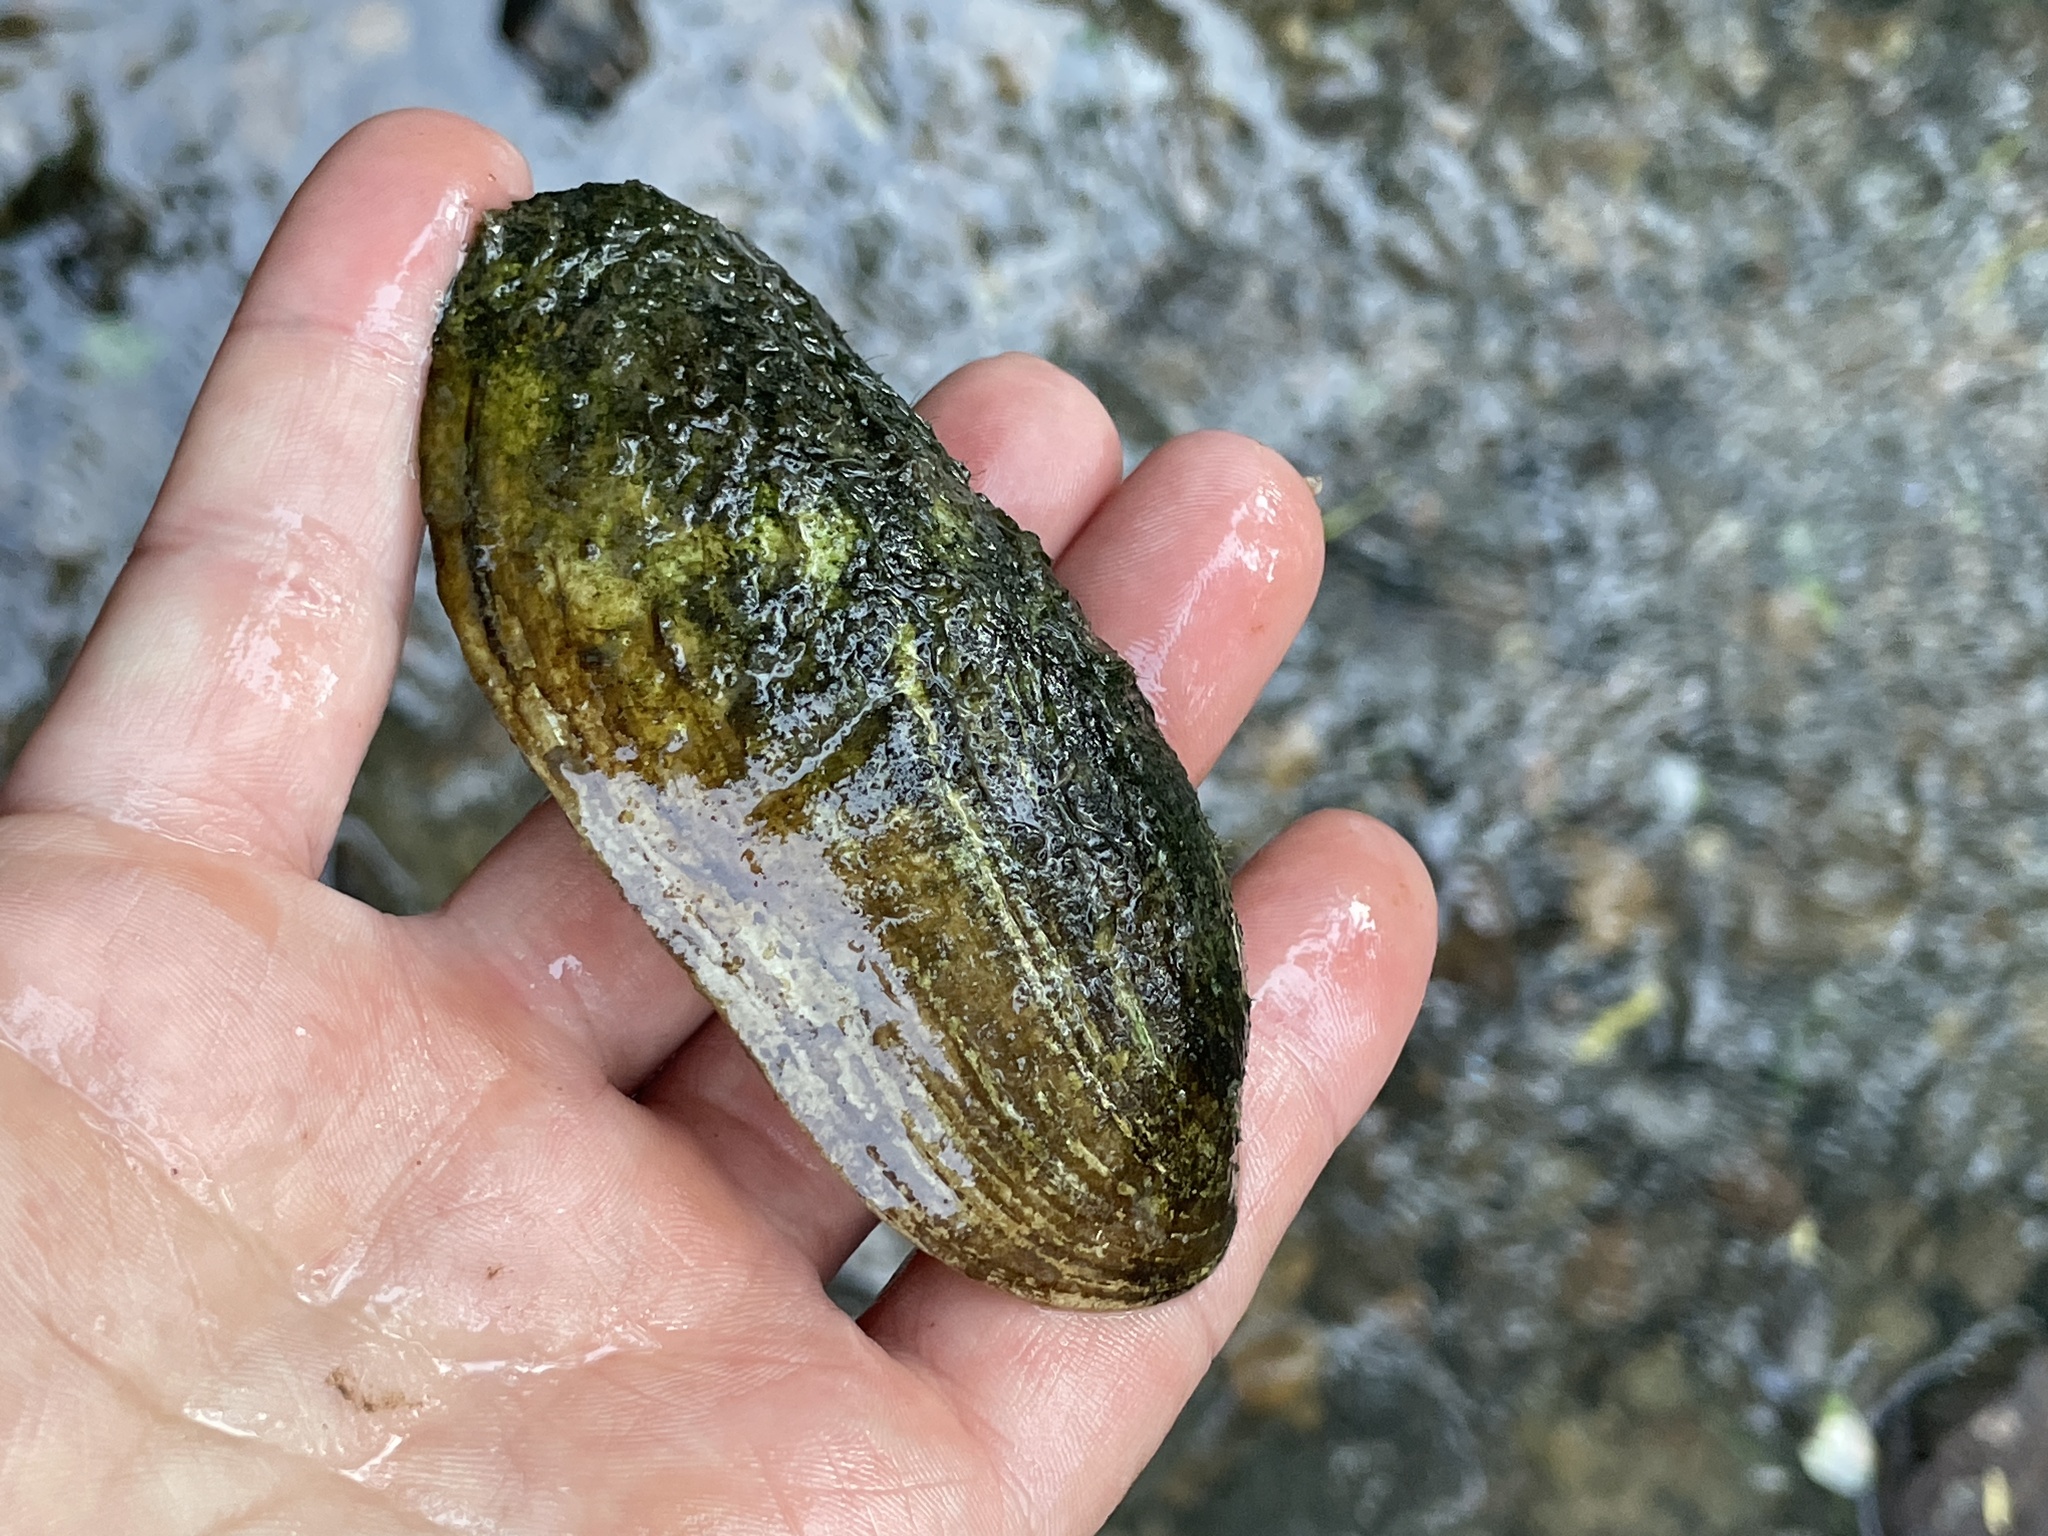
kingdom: Animalia
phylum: Mollusca
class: Bivalvia
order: Unionida
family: Unionidae
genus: Lampsilis
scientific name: Lampsilis teres
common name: Yellow sandshell
